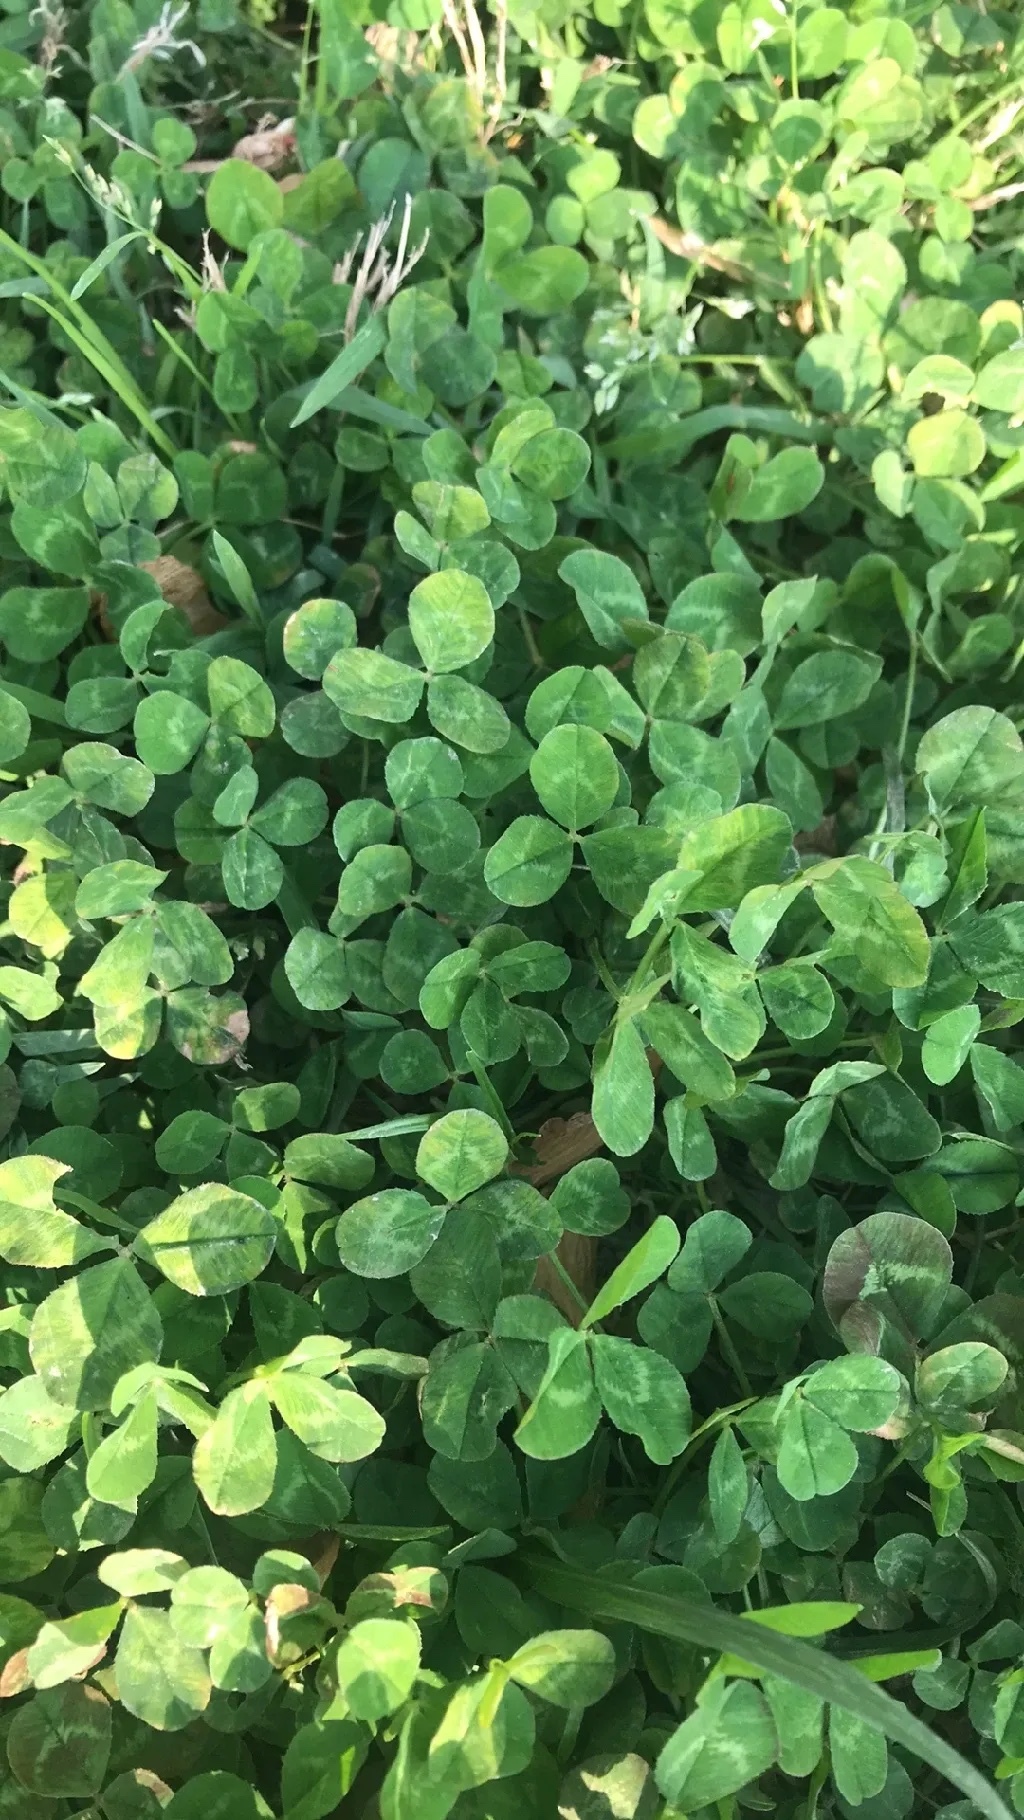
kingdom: Plantae
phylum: Tracheophyta
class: Magnoliopsida
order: Fabales
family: Fabaceae
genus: Trifolium
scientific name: Trifolium repens
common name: White clover
